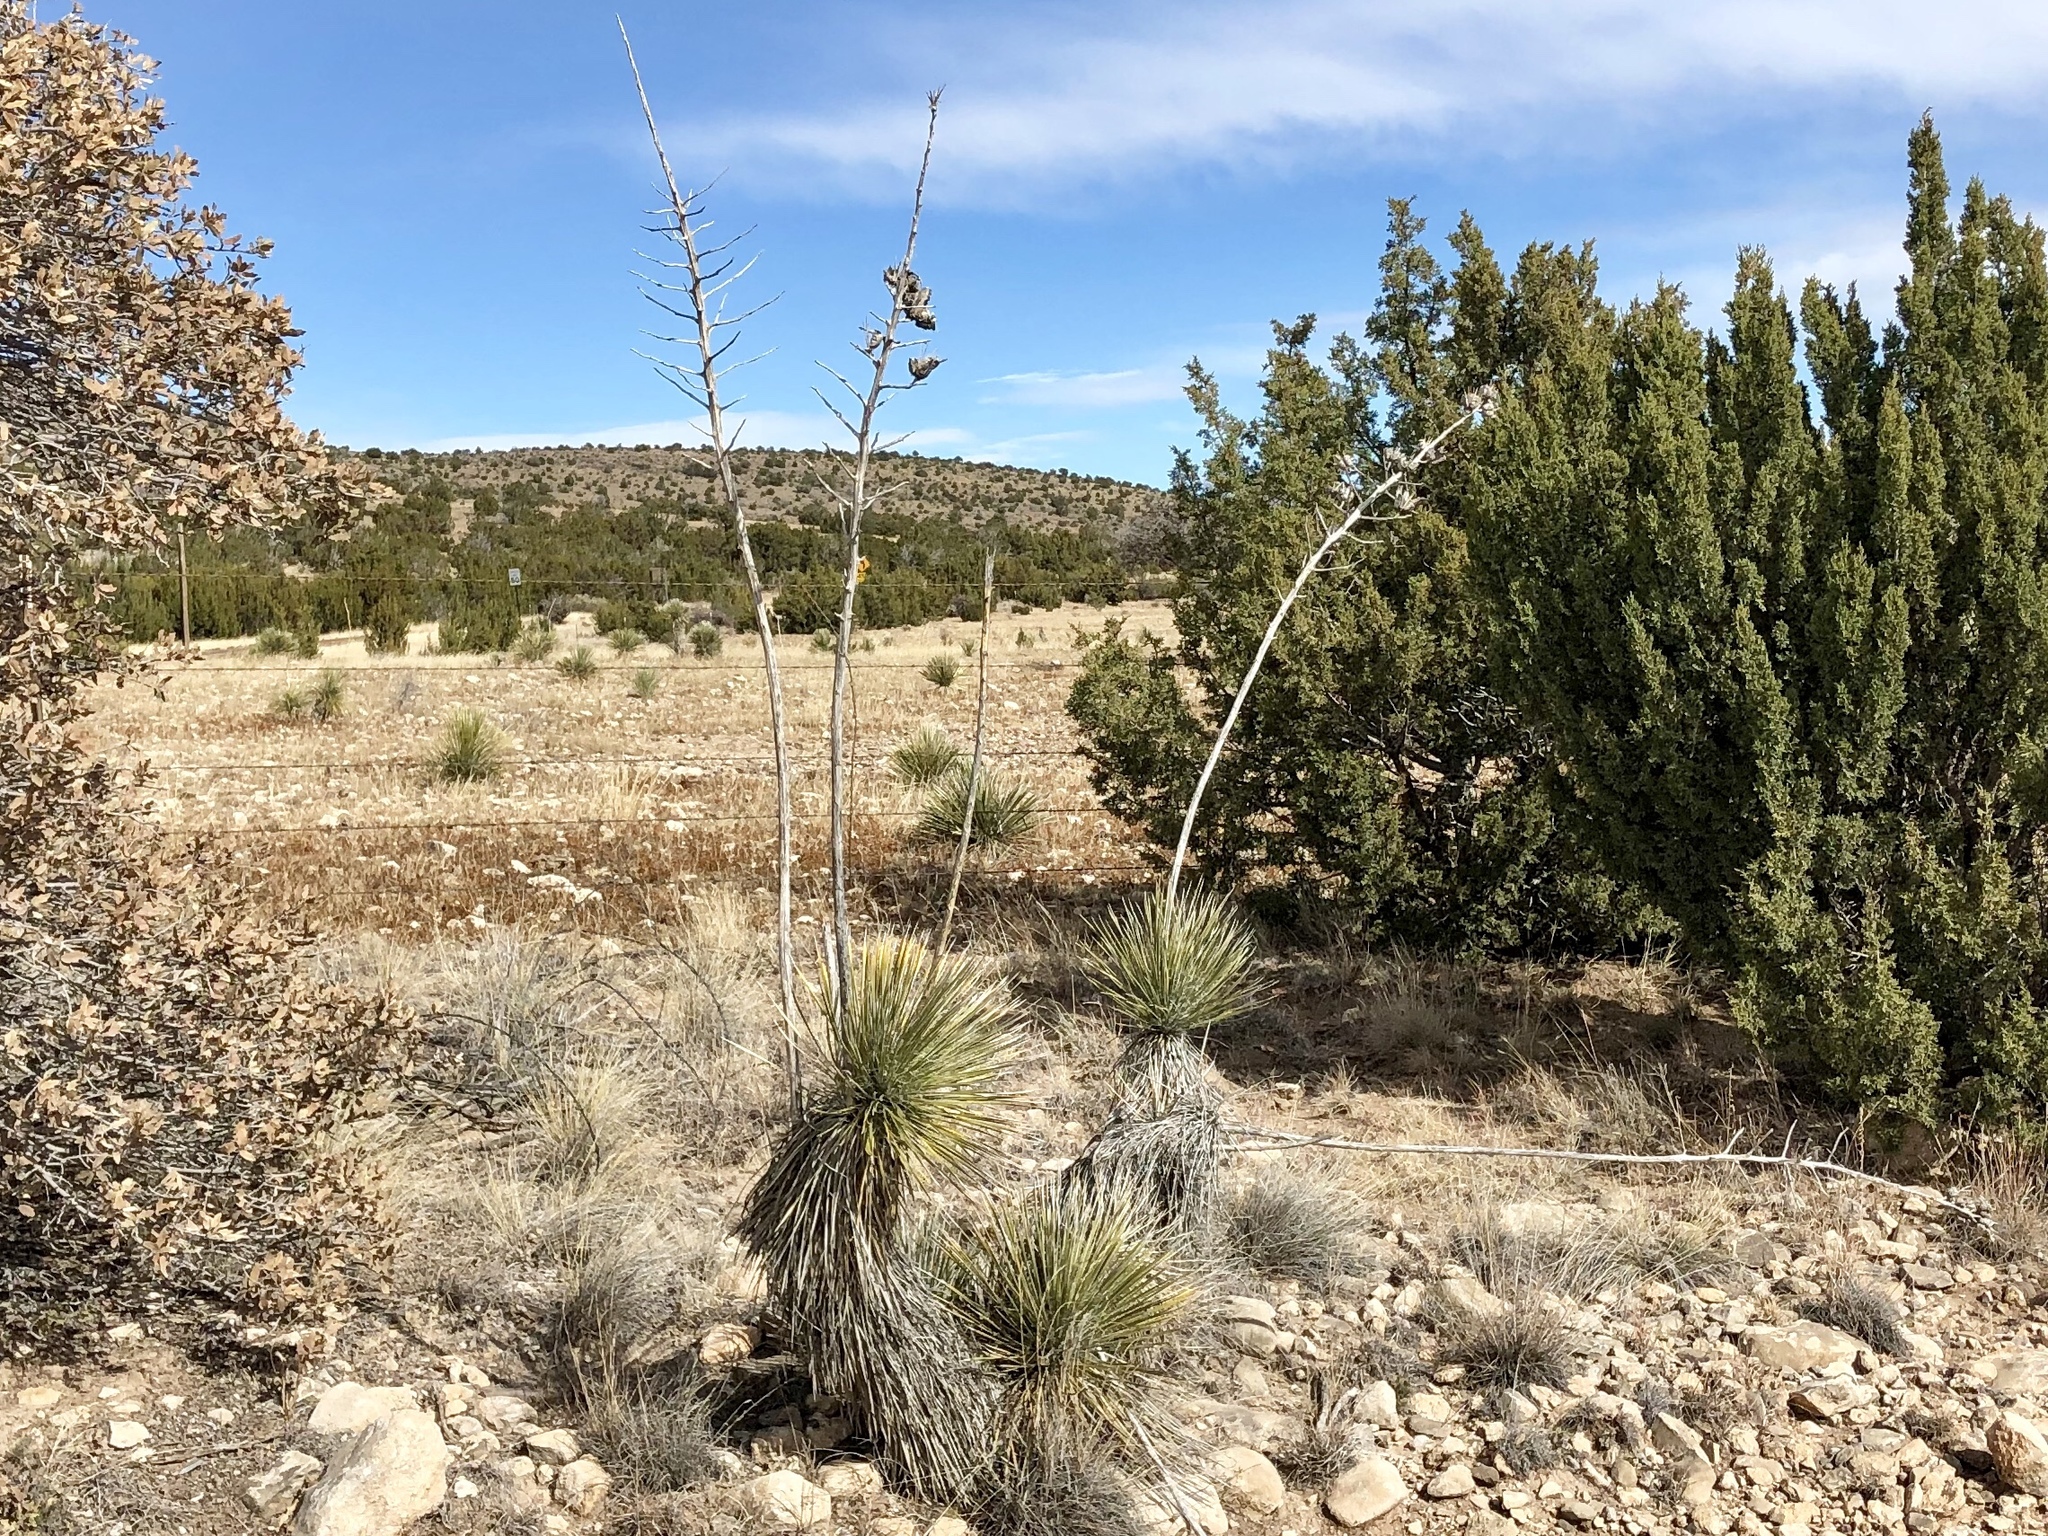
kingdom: Plantae
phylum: Tracheophyta
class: Liliopsida
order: Asparagales
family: Asparagaceae
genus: Yucca
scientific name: Yucca elata
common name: Palmella
